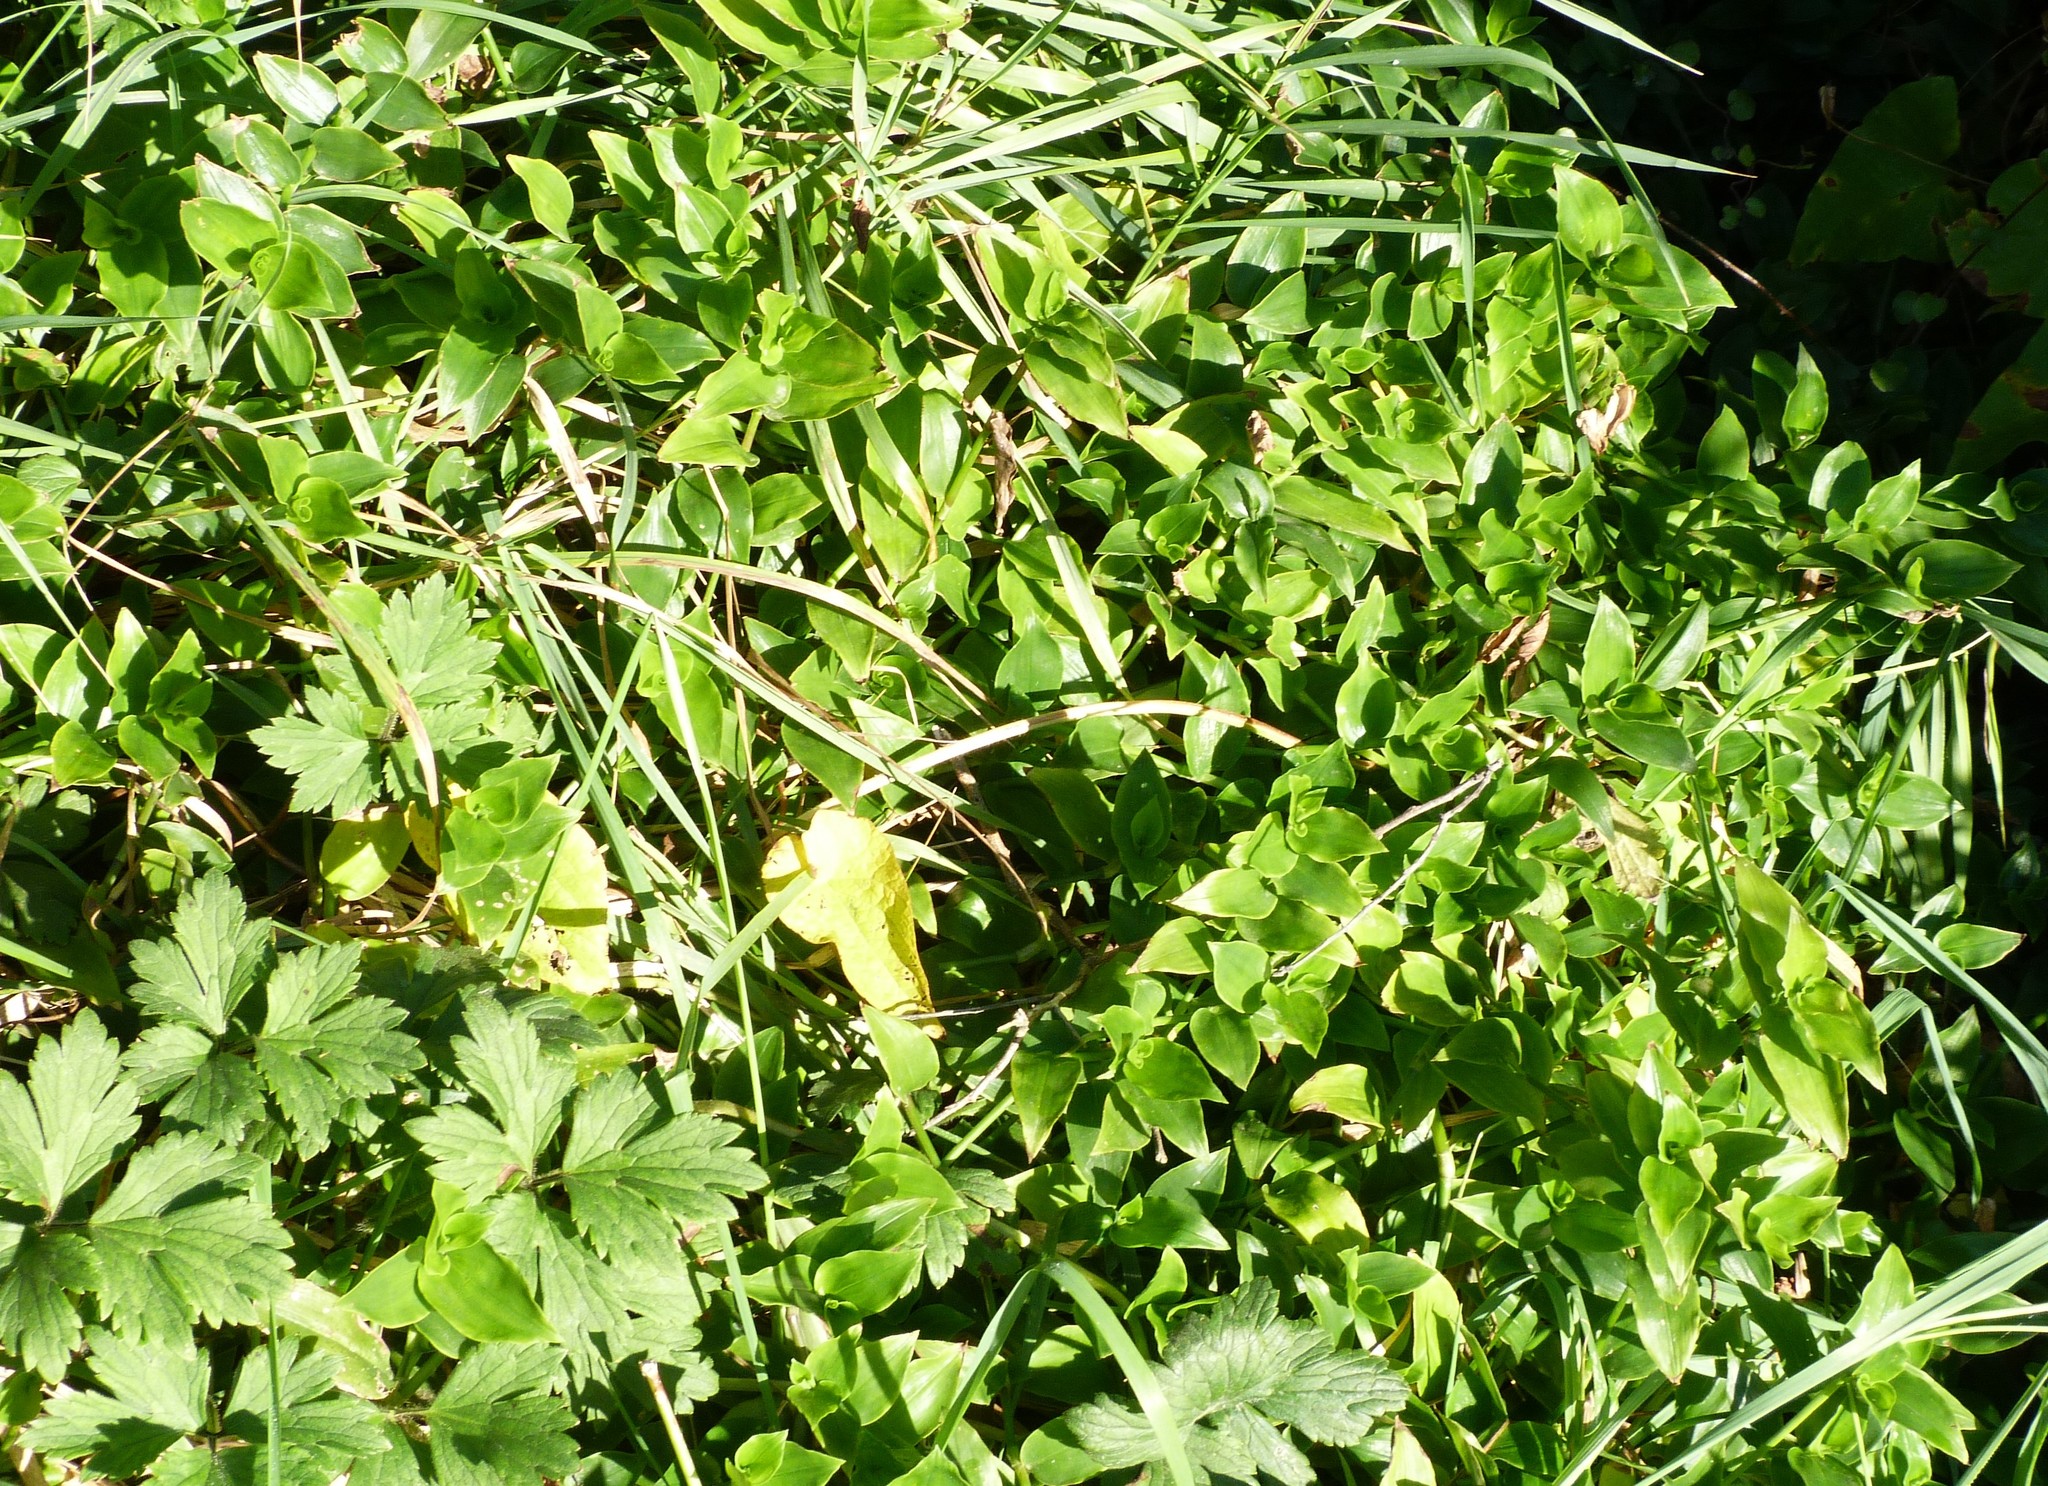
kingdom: Plantae
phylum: Tracheophyta
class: Liliopsida
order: Commelinales
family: Commelinaceae
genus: Tradescantia
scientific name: Tradescantia fluminensis
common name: Wandering-jew
